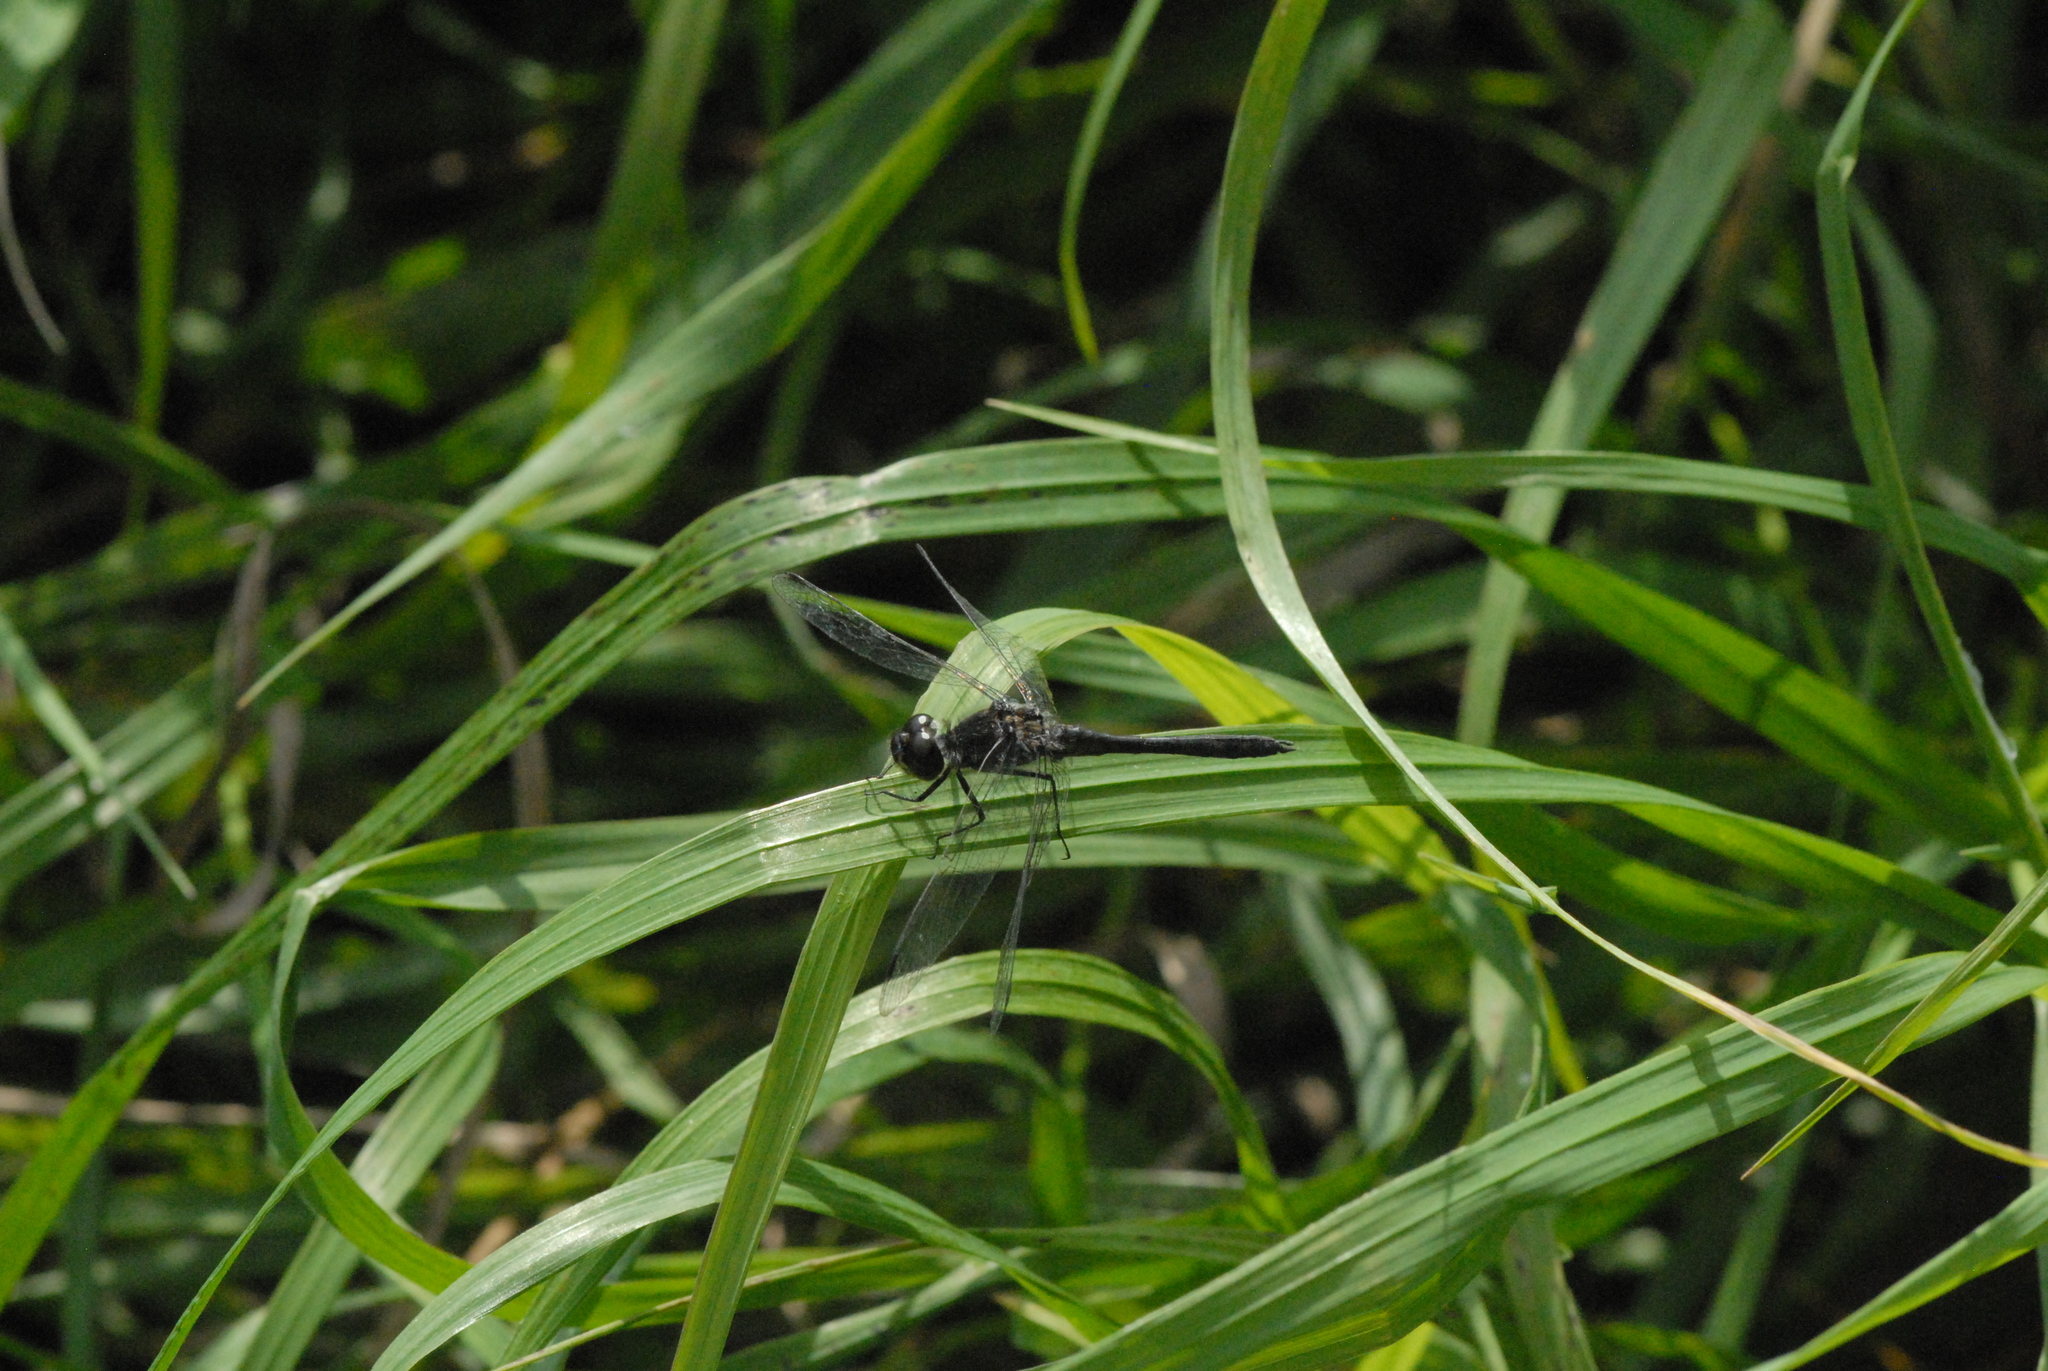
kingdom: Animalia
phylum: Arthropoda
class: Insecta
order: Odonata
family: Libellulidae
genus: Sympetrum
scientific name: Sympetrum danae
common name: Black darter
